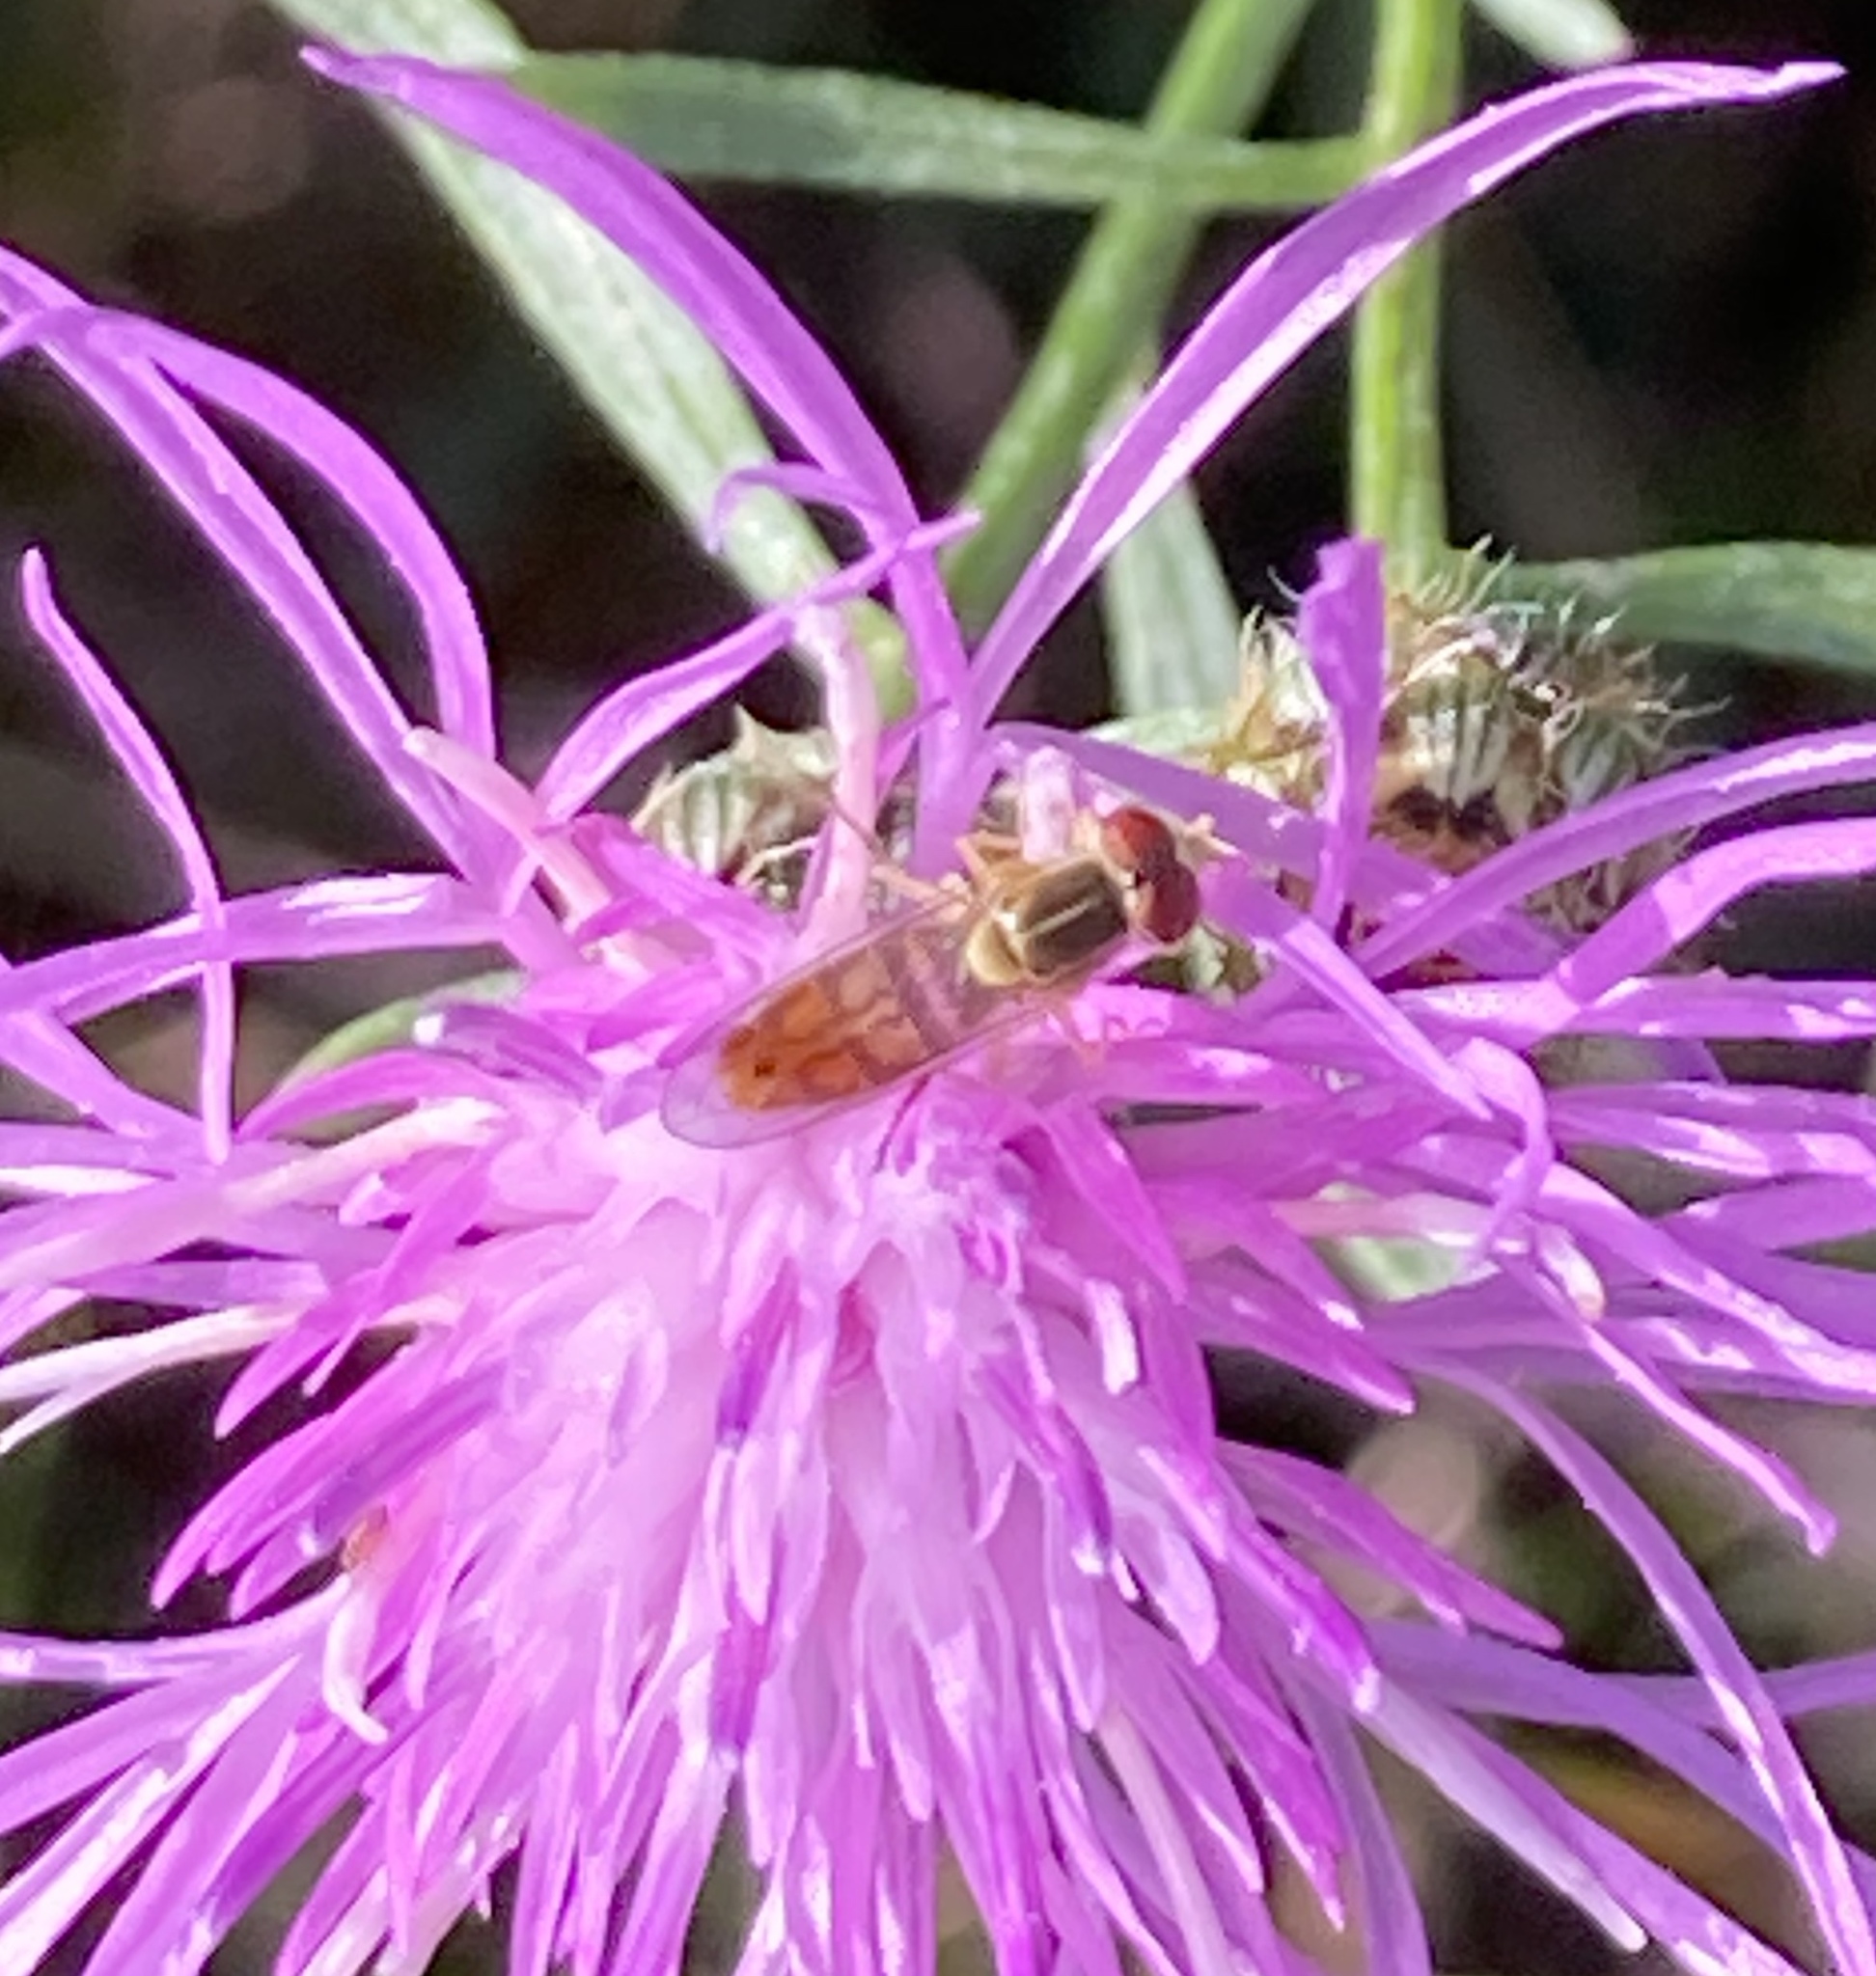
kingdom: Animalia
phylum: Arthropoda
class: Insecta
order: Diptera
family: Syrphidae
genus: Toxomerus
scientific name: Toxomerus marginatus
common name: Syrphid fly
